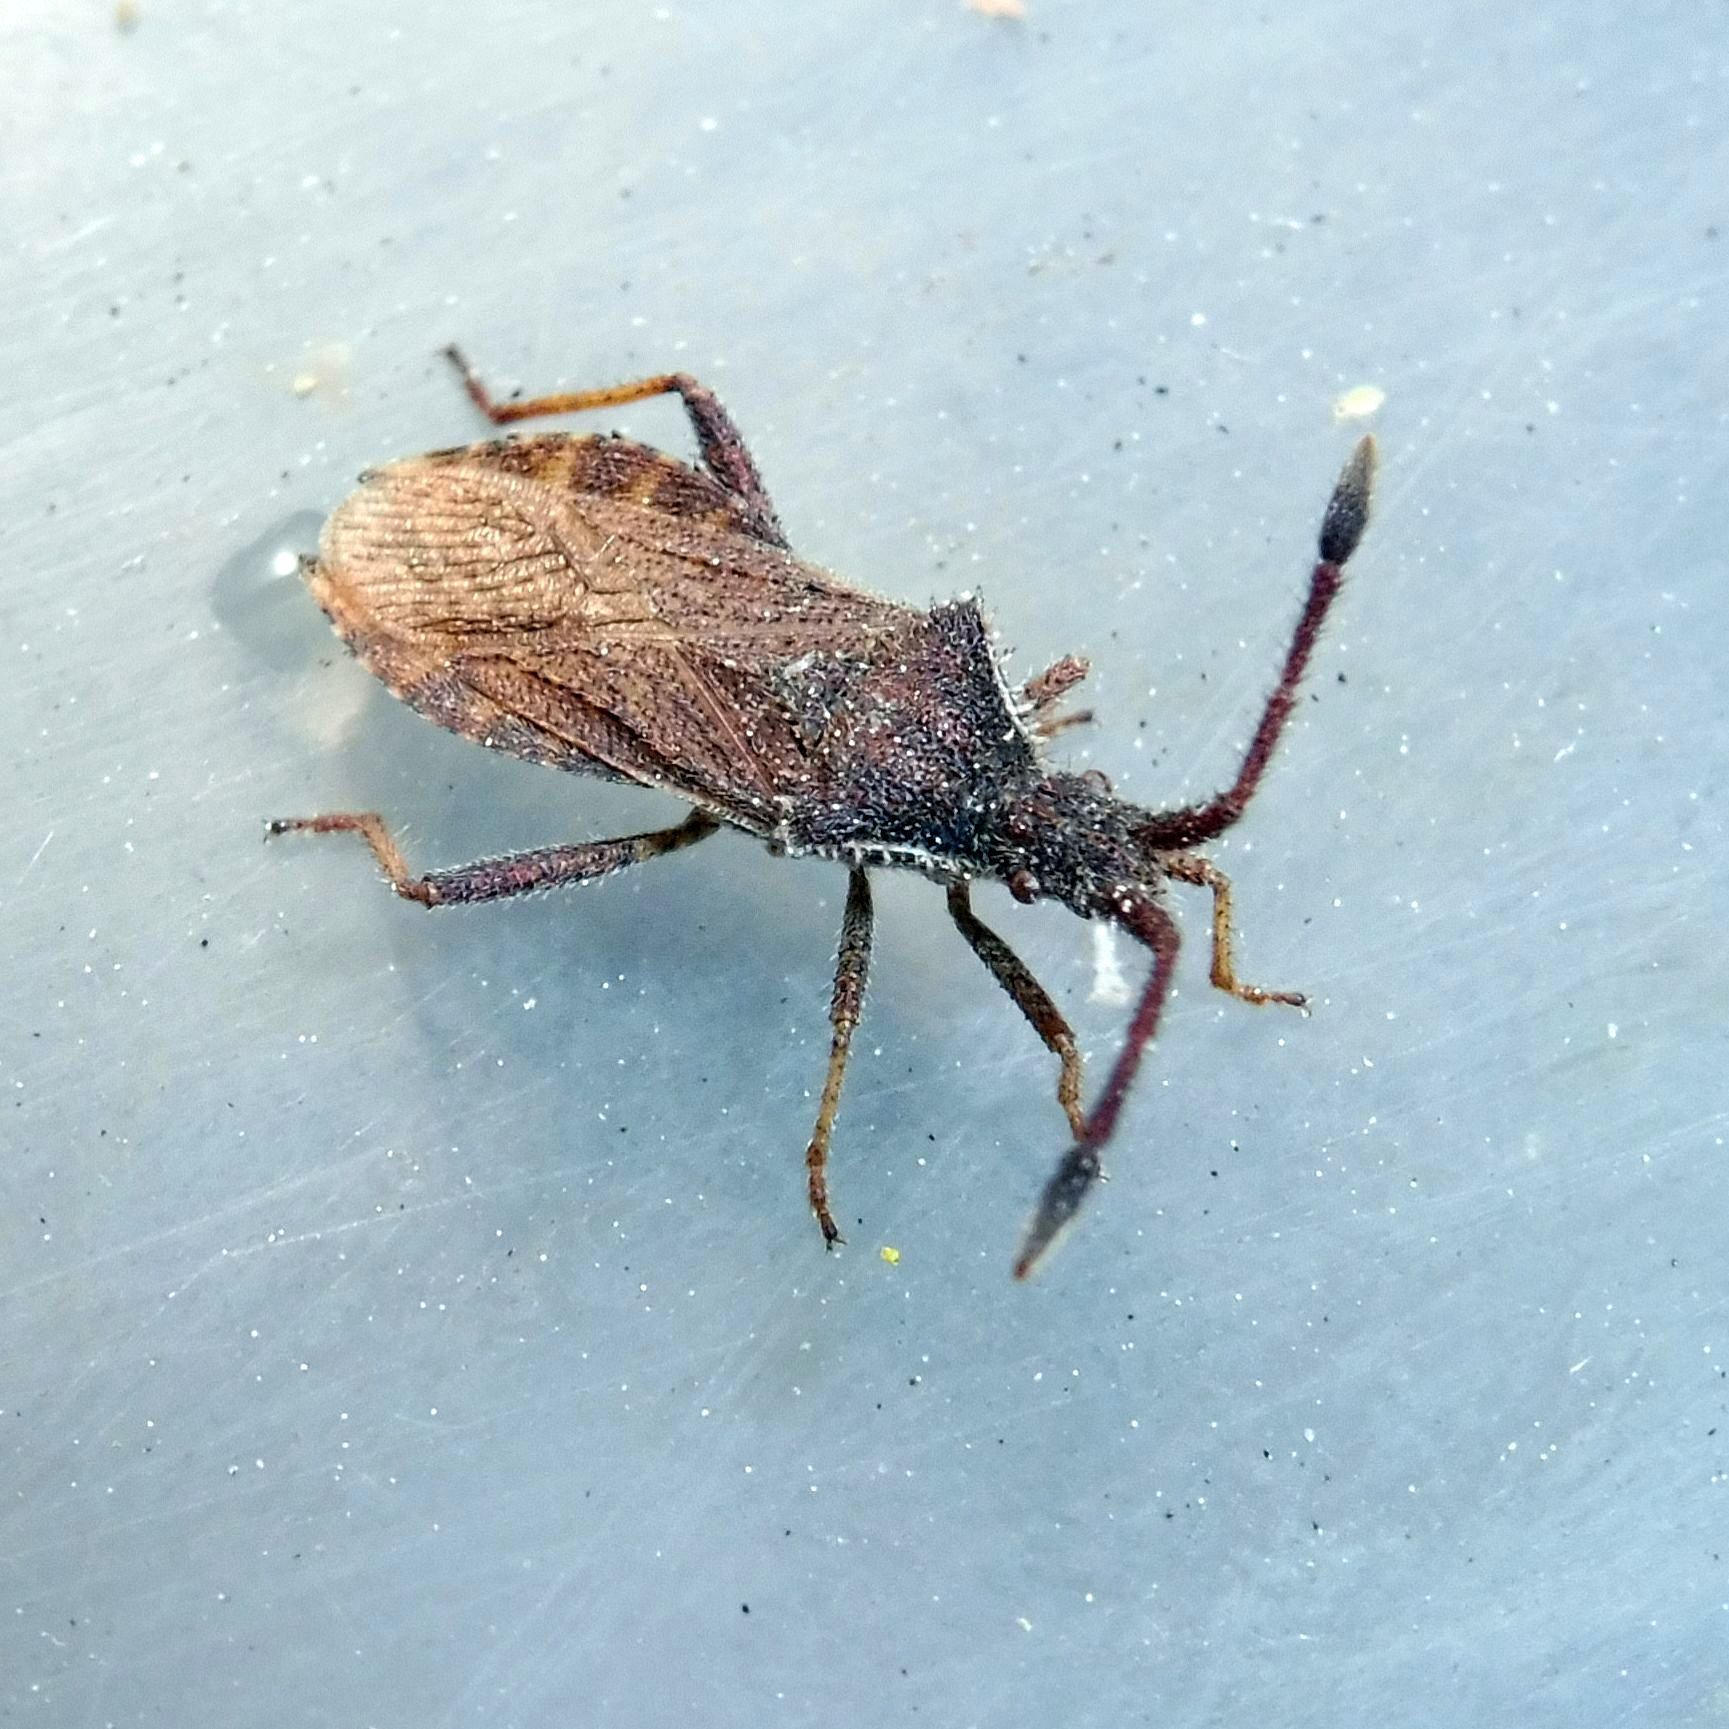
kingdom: Animalia
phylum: Arthropoda
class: Insecta
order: Hemiptera
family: Coreidae
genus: Coriomeris
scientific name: Coriomeris denticulatus
